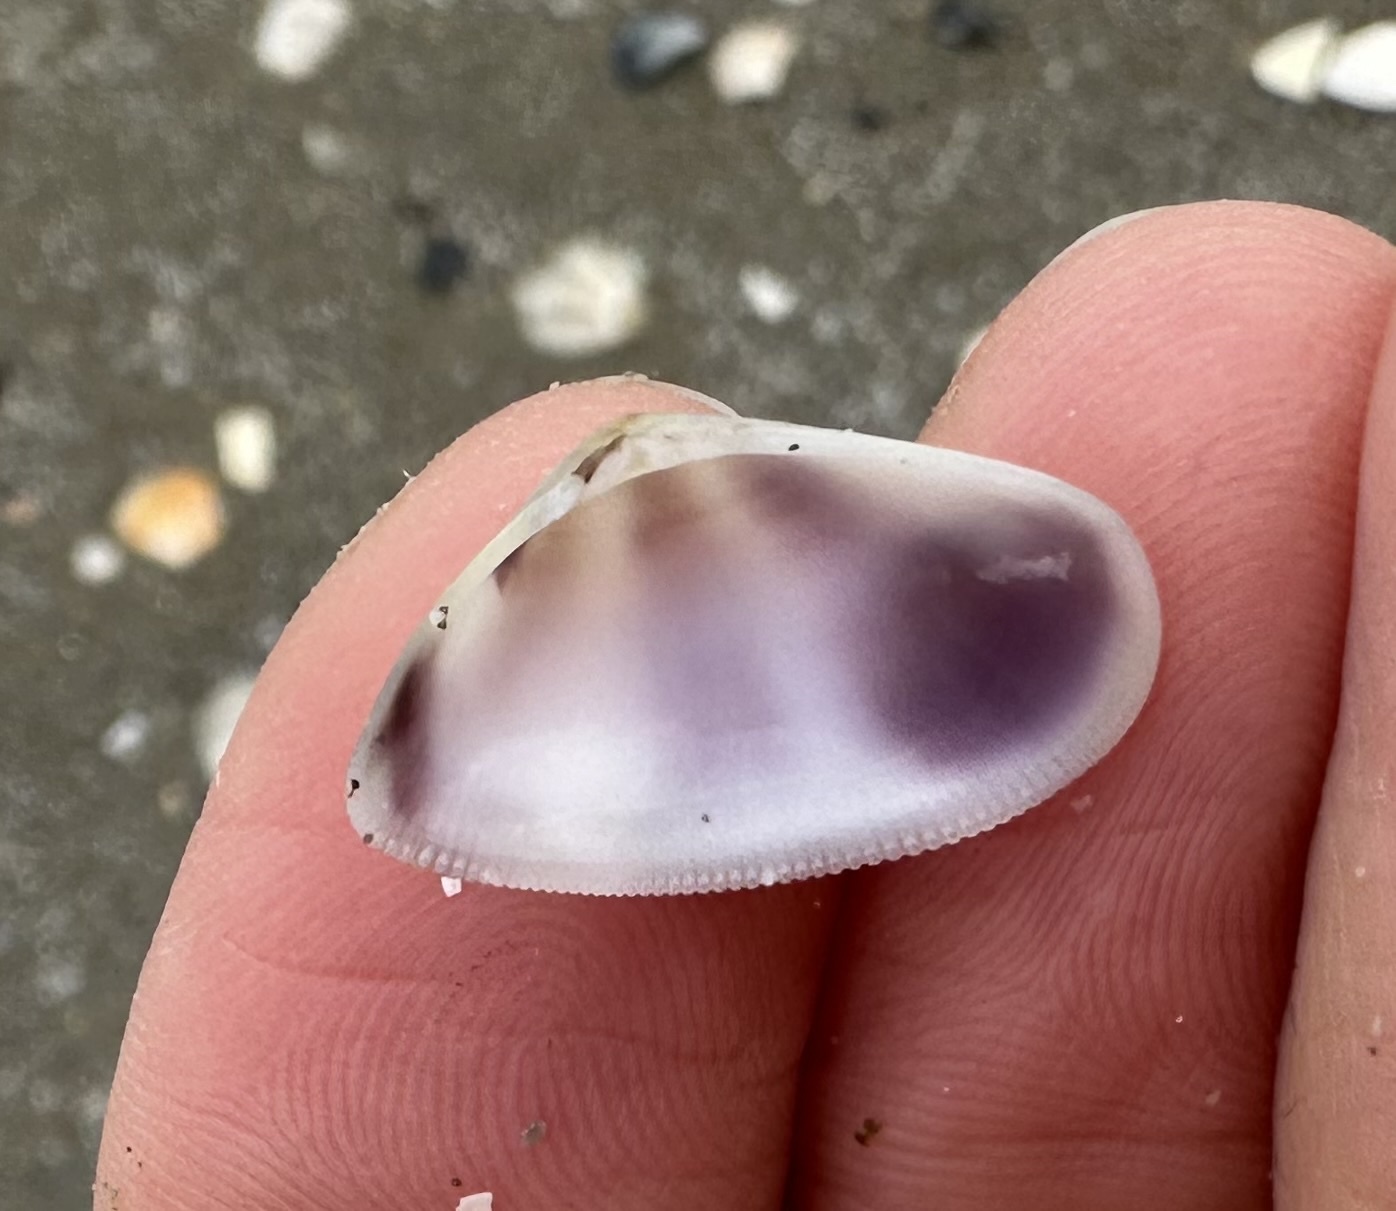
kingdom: Animalia
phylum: Mollusca
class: Bivalvia
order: Cardiida
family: Donacidae
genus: Donax
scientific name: Donax semistriatus
